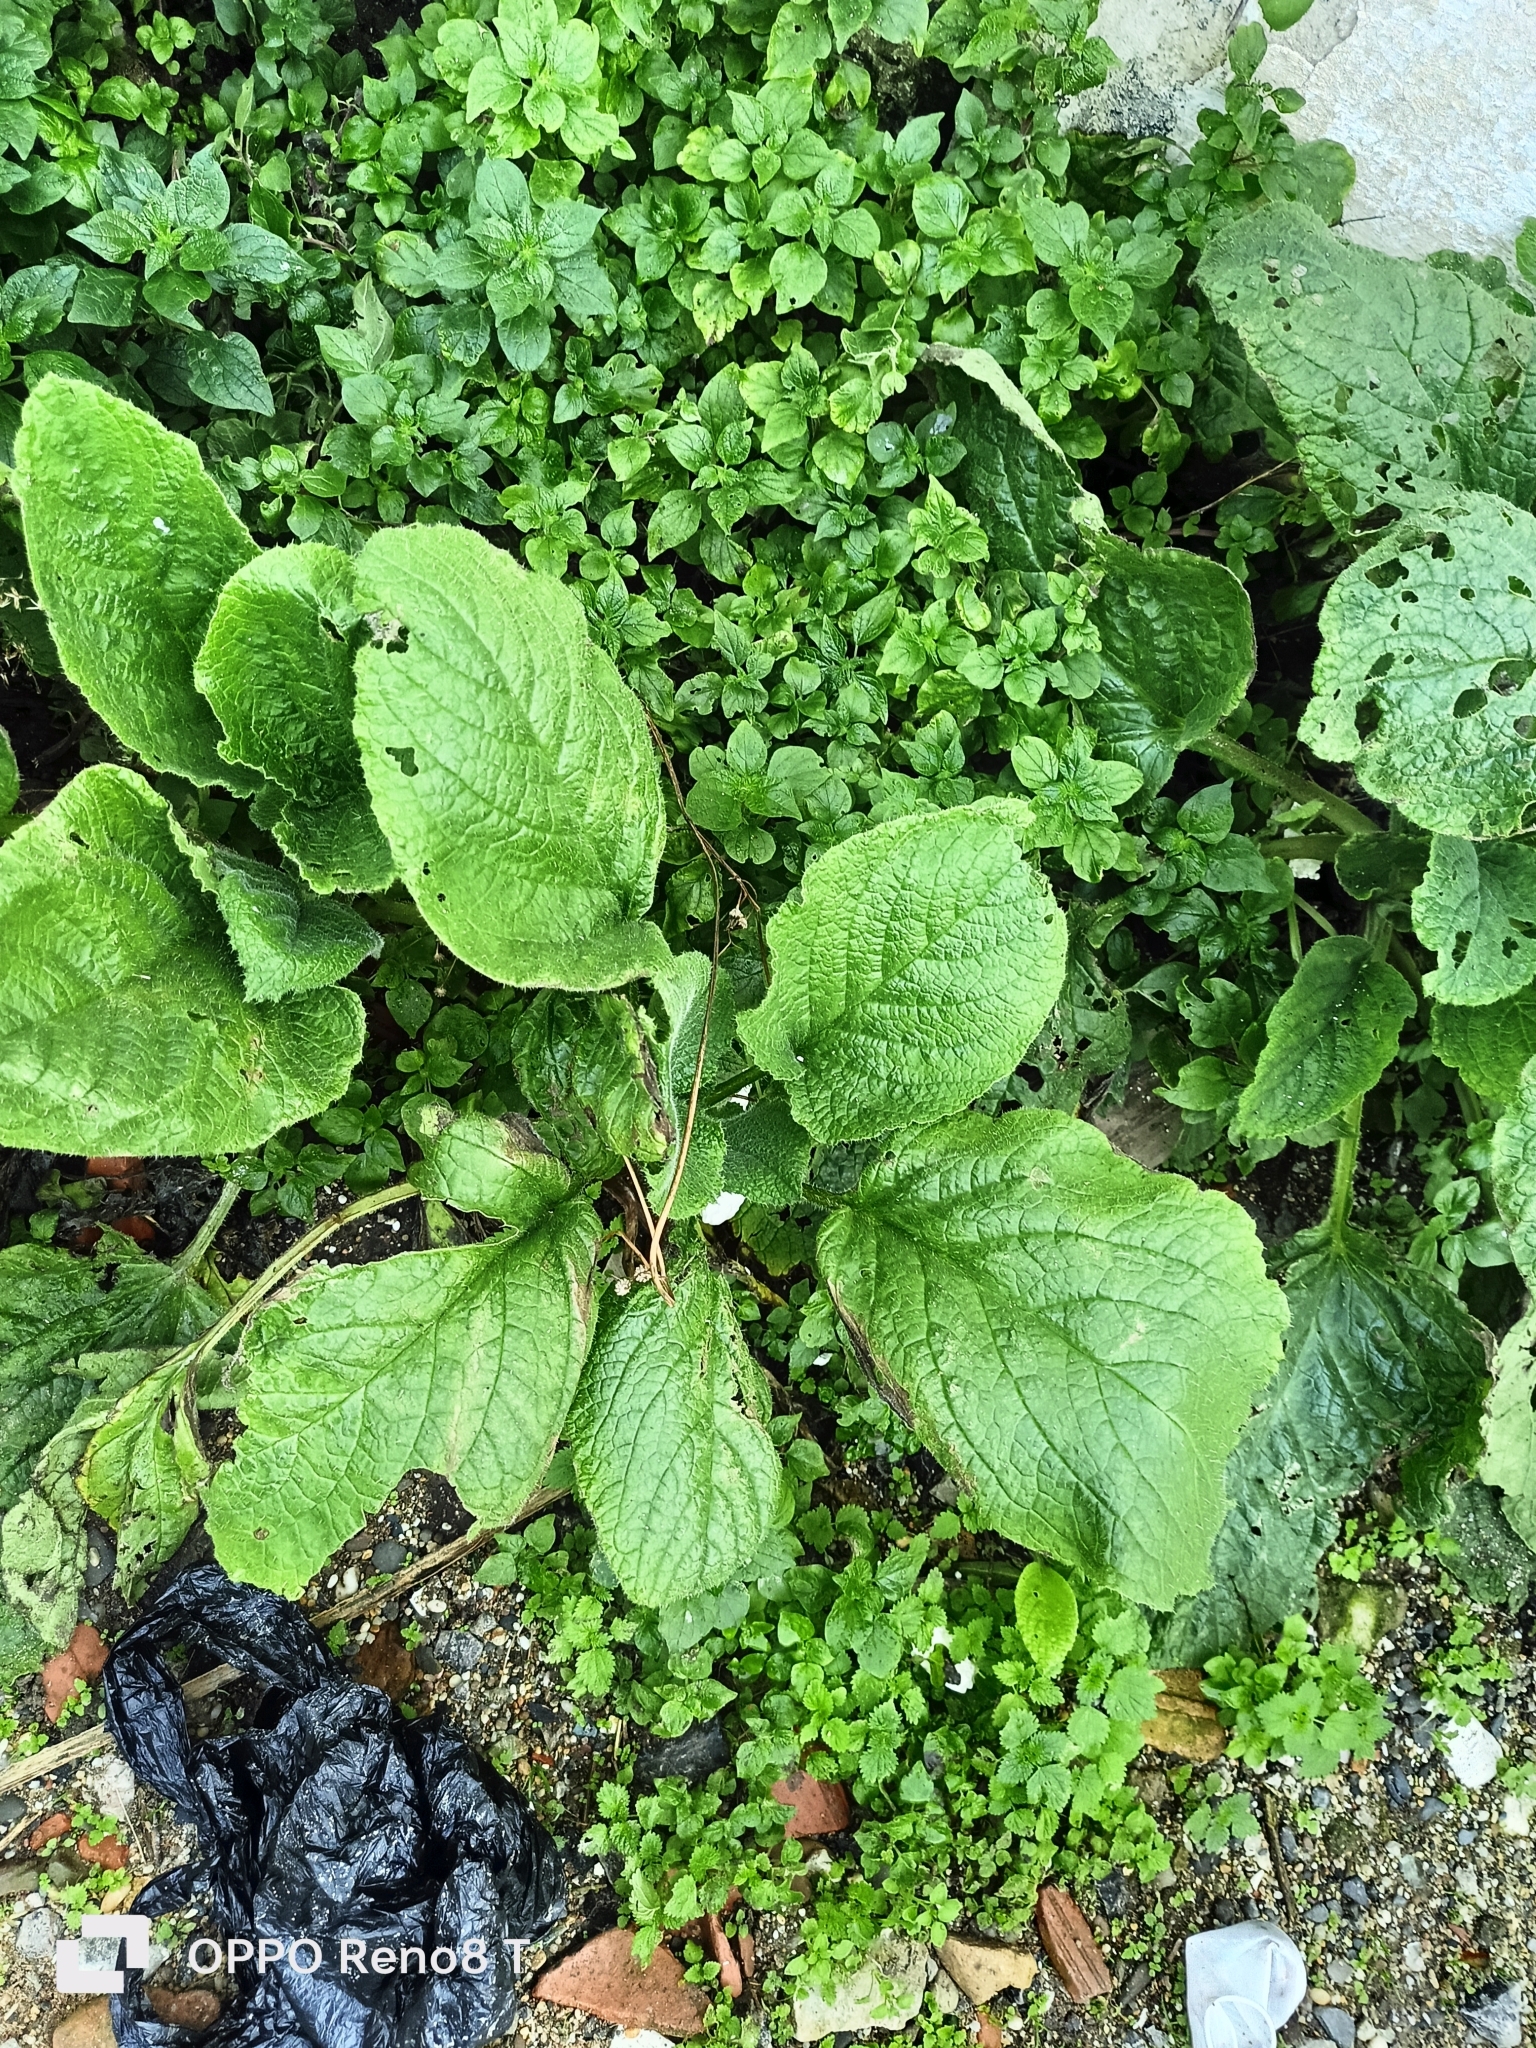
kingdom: Plantae
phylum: Tracheophyta
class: Magnoliopsida
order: Boraginales
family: Boraginaceae
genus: Borago
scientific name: Borago officinalis
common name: Borage
